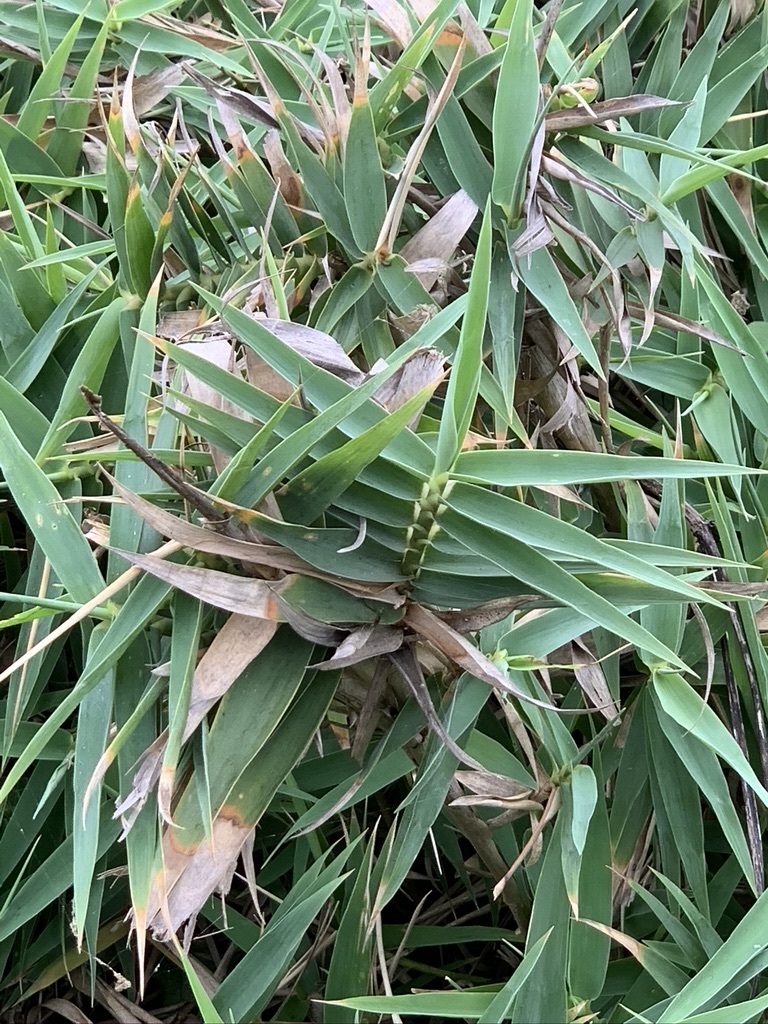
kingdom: Plantae
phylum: Tracheophyta
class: Liliopsida
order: Poales
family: Poaceae
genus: Arundo
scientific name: Arundo formosana
